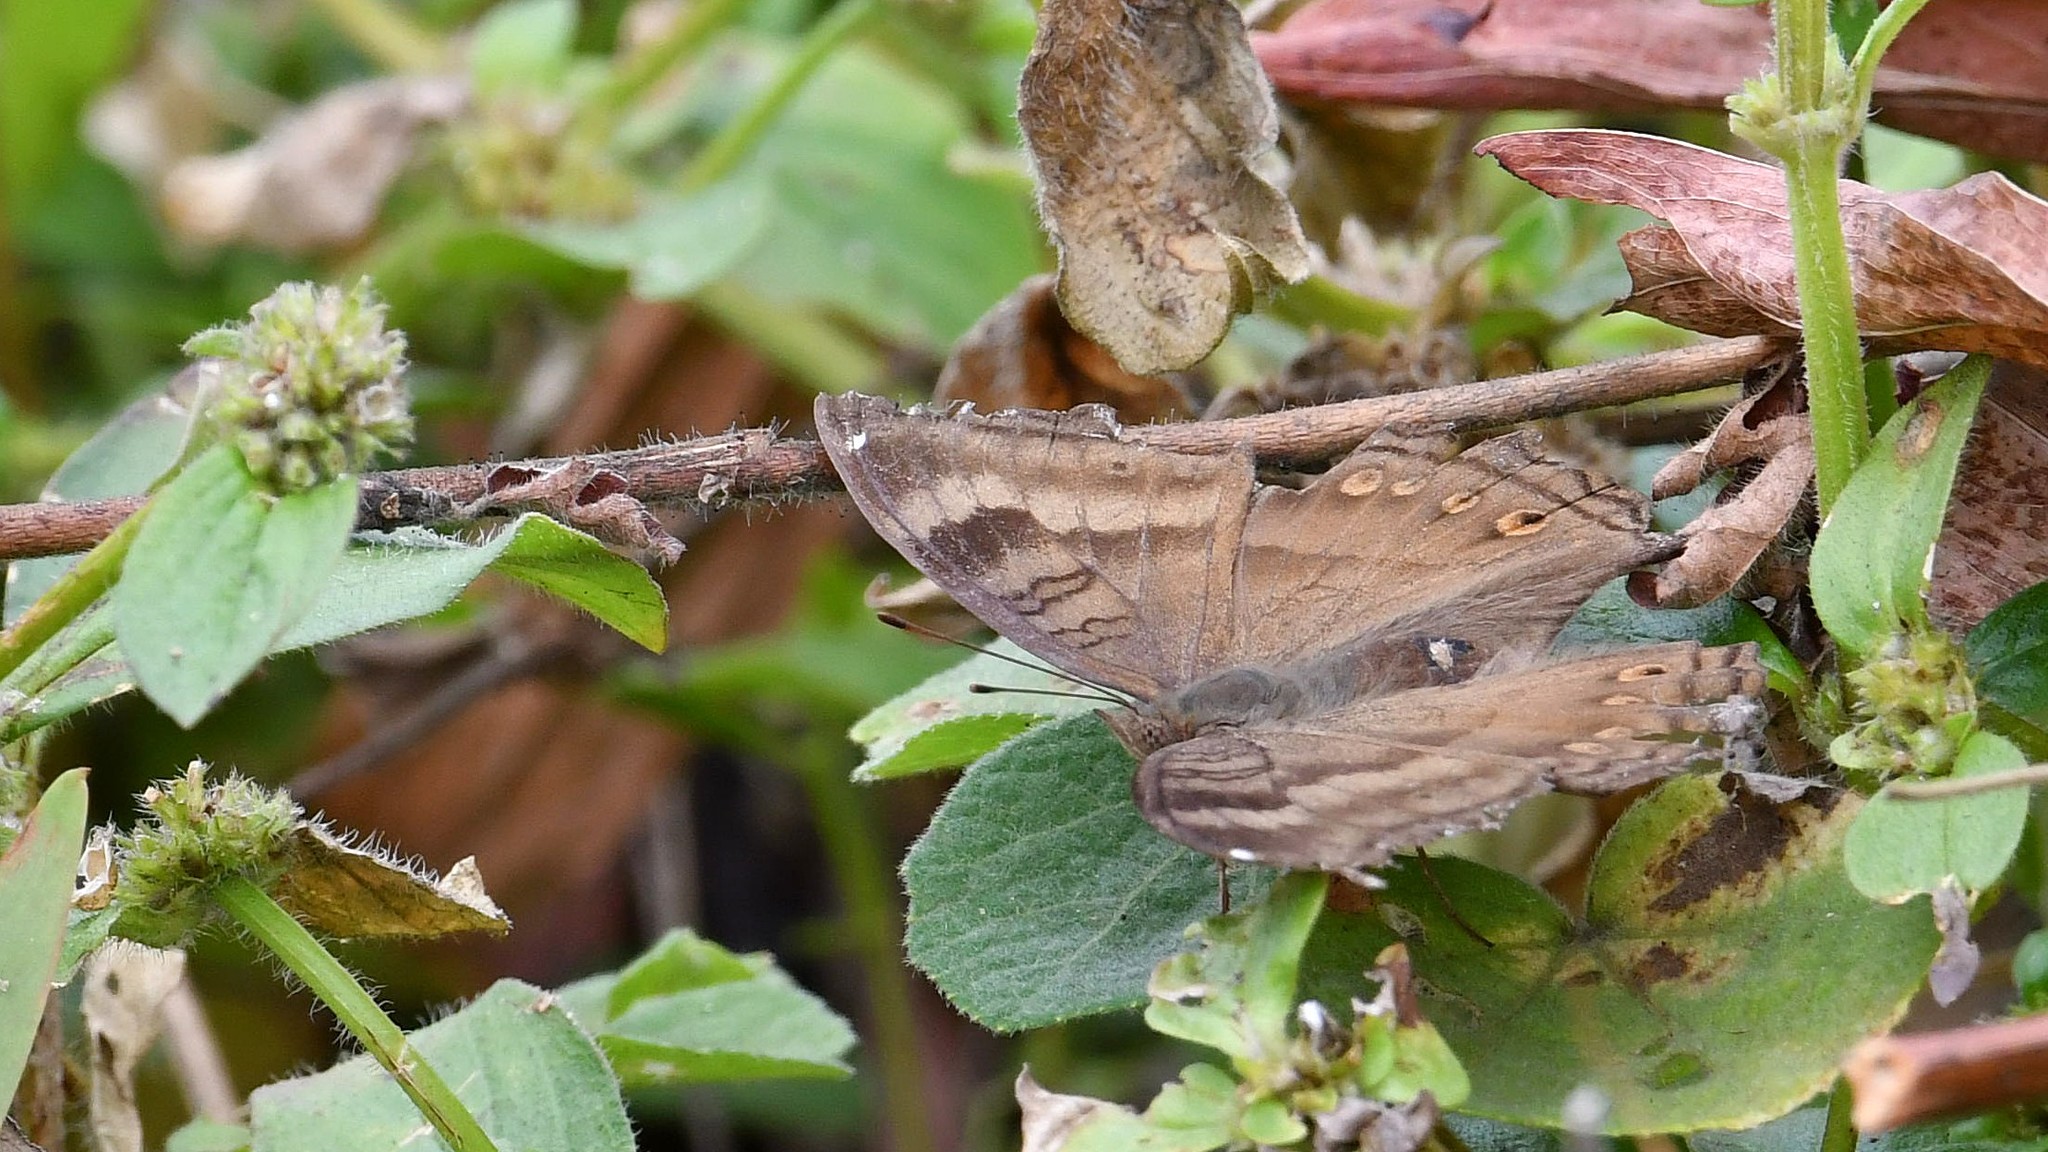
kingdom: Animalia
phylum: Arthropoda
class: Insecta
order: Lepidoptera
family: Nymphalidae
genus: Junonia
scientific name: Junonia iphita
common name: Chocolate pansy
